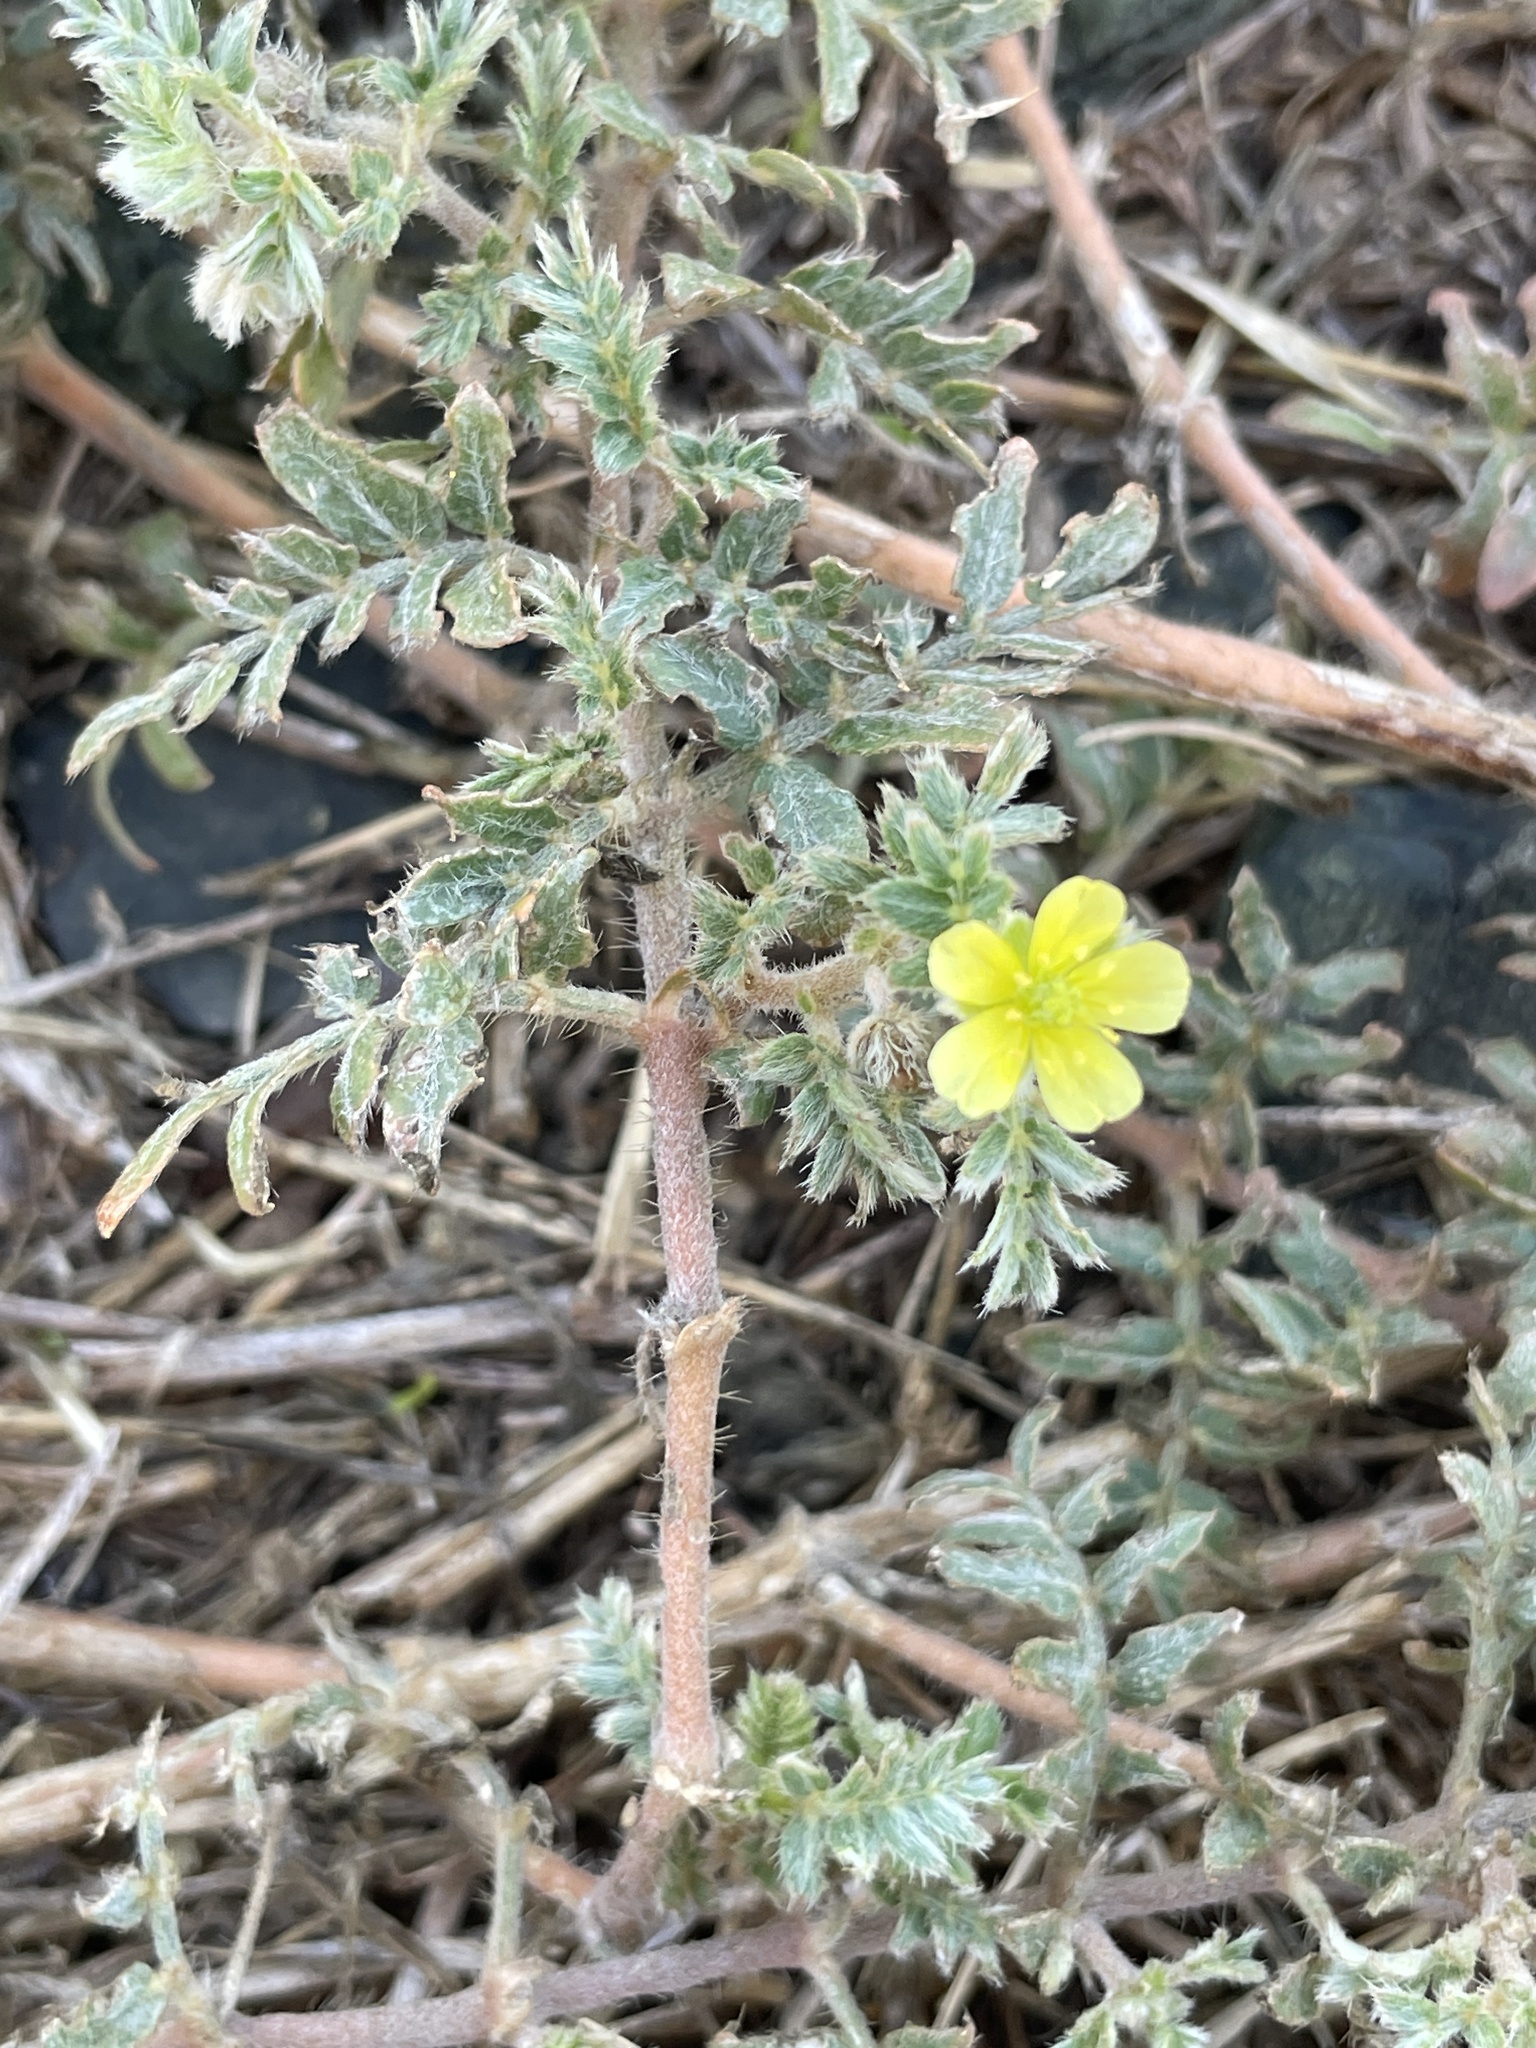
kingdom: Plantae
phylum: Tracheophyta
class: Magnoliopsida
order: Zygophyllales
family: Zygophyllaceae
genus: Tribulus
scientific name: Tribulus terrestris
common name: Puncturevine
